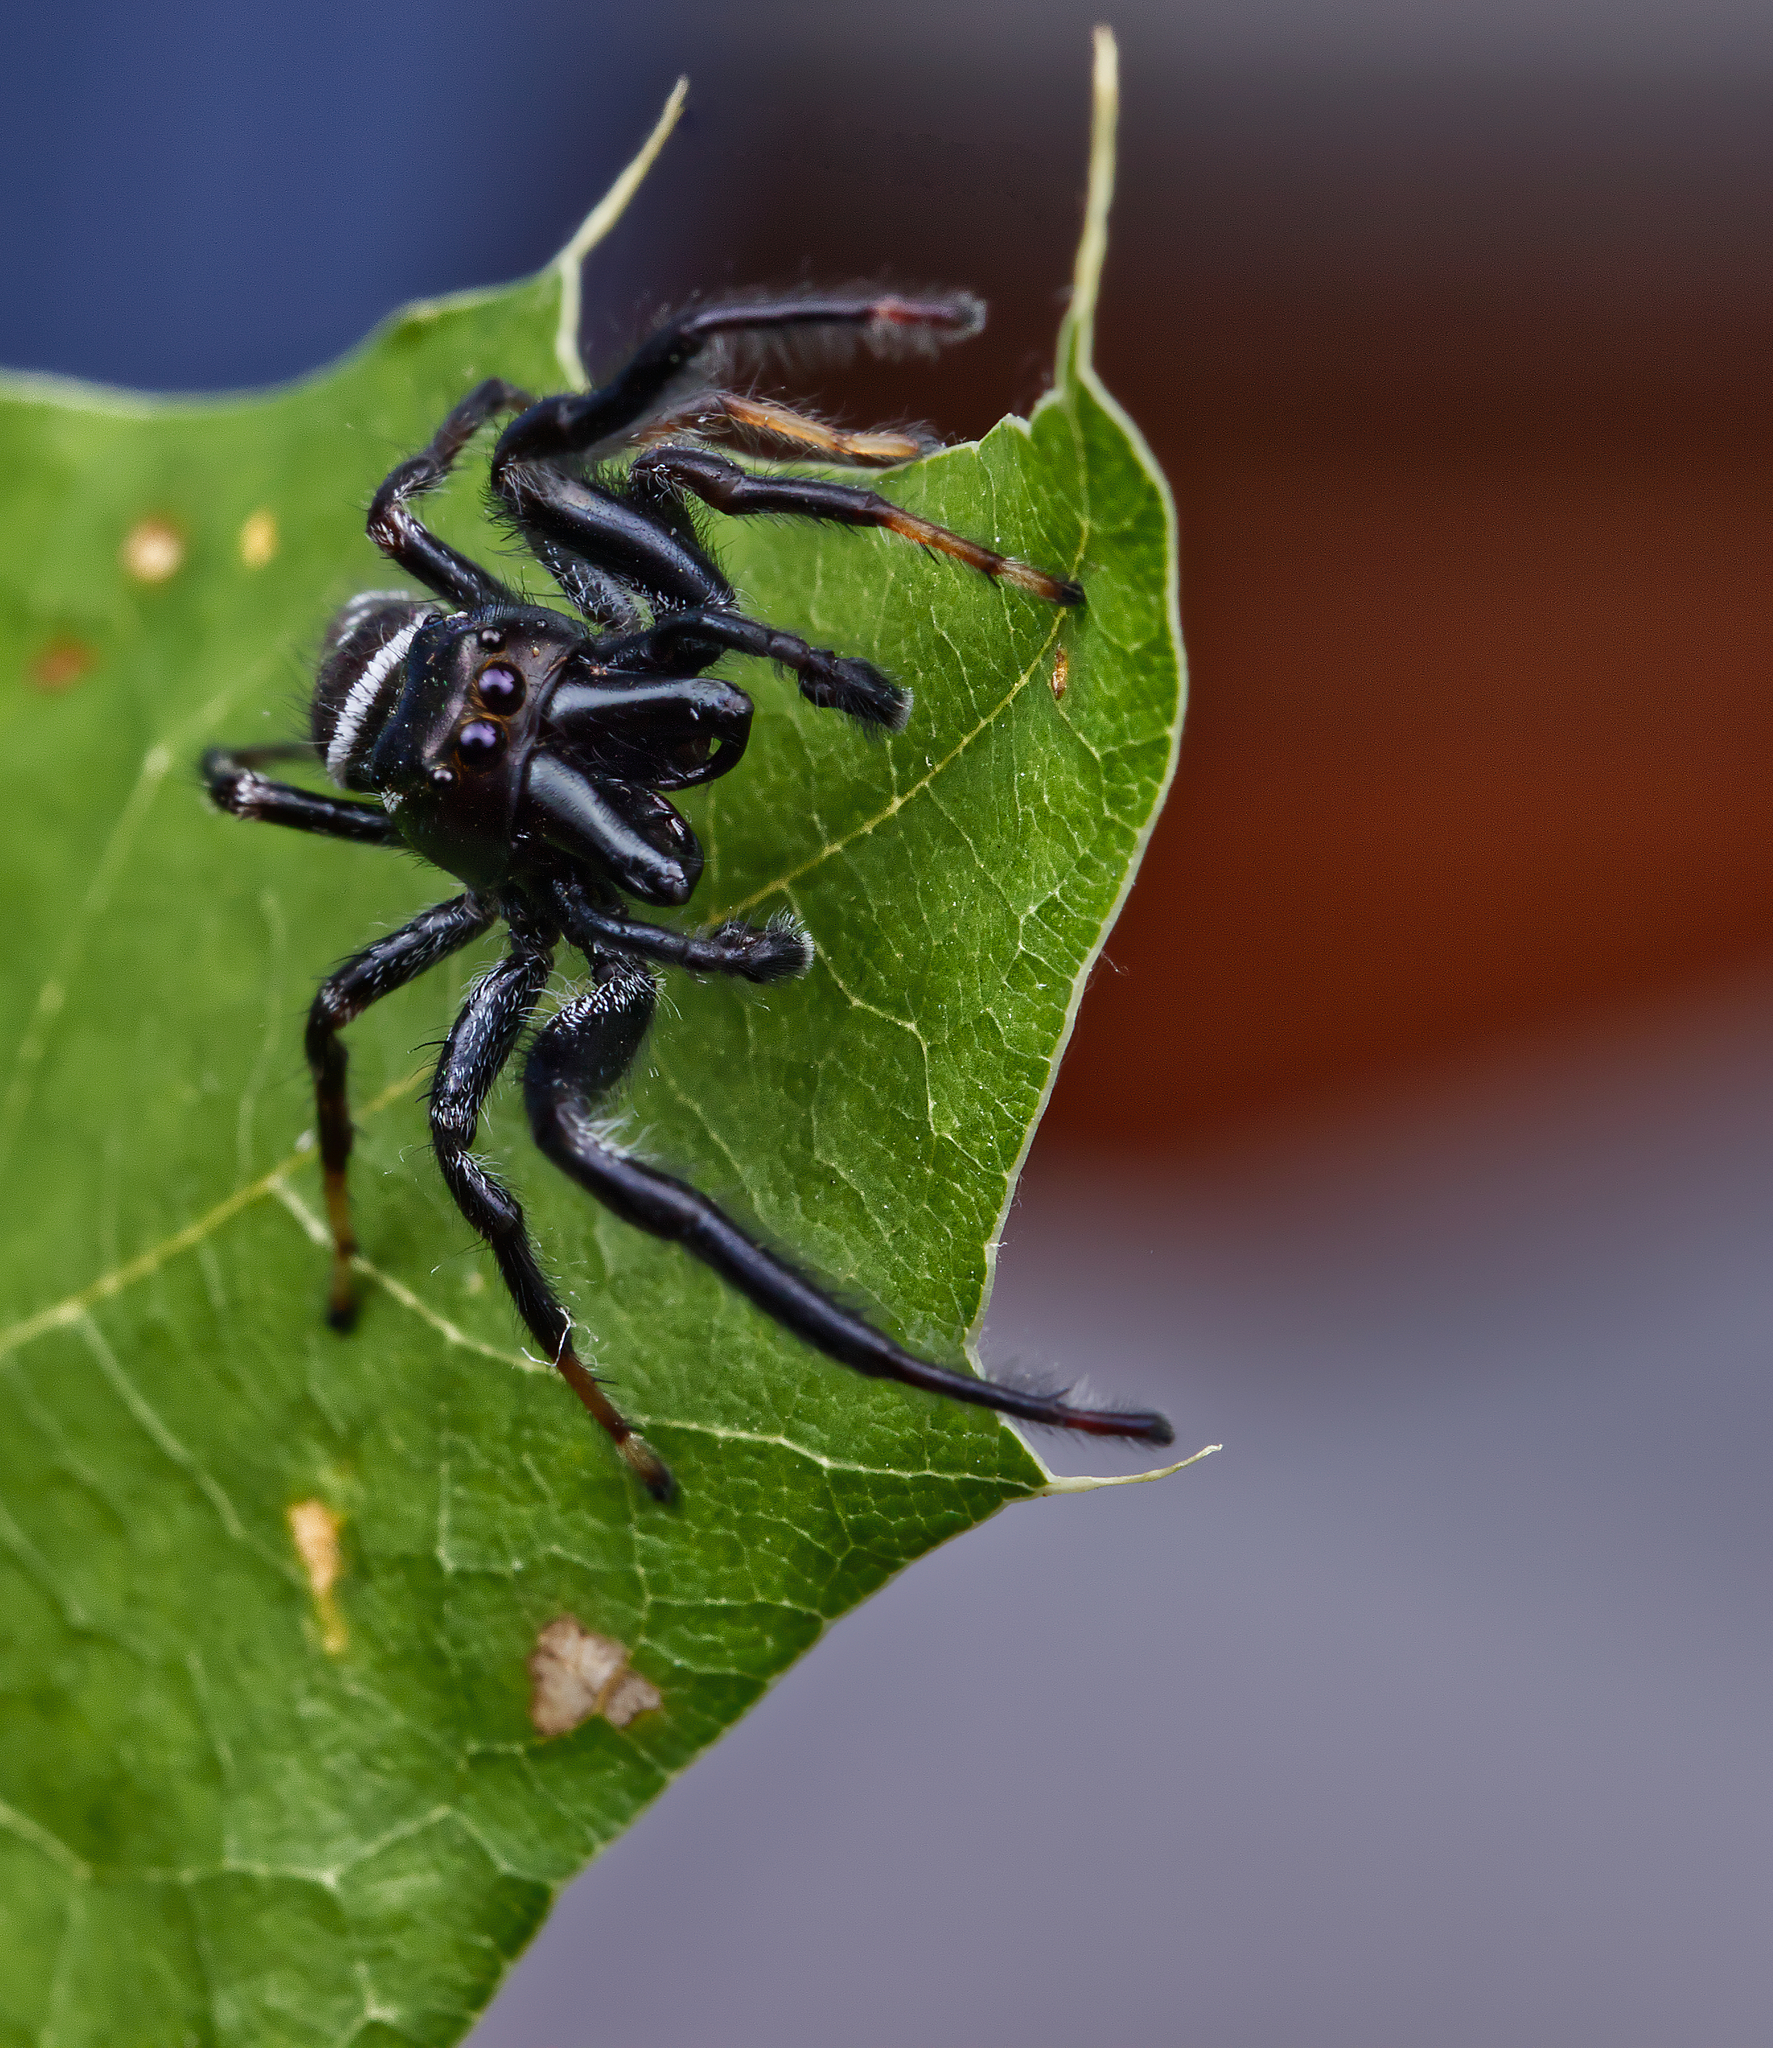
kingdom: Animalia
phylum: Arthropoda
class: Arachnida
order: Araneae
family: Salticidae
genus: Paraphidippus
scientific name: Paraphidippus aurantius
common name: Jumping spiders
